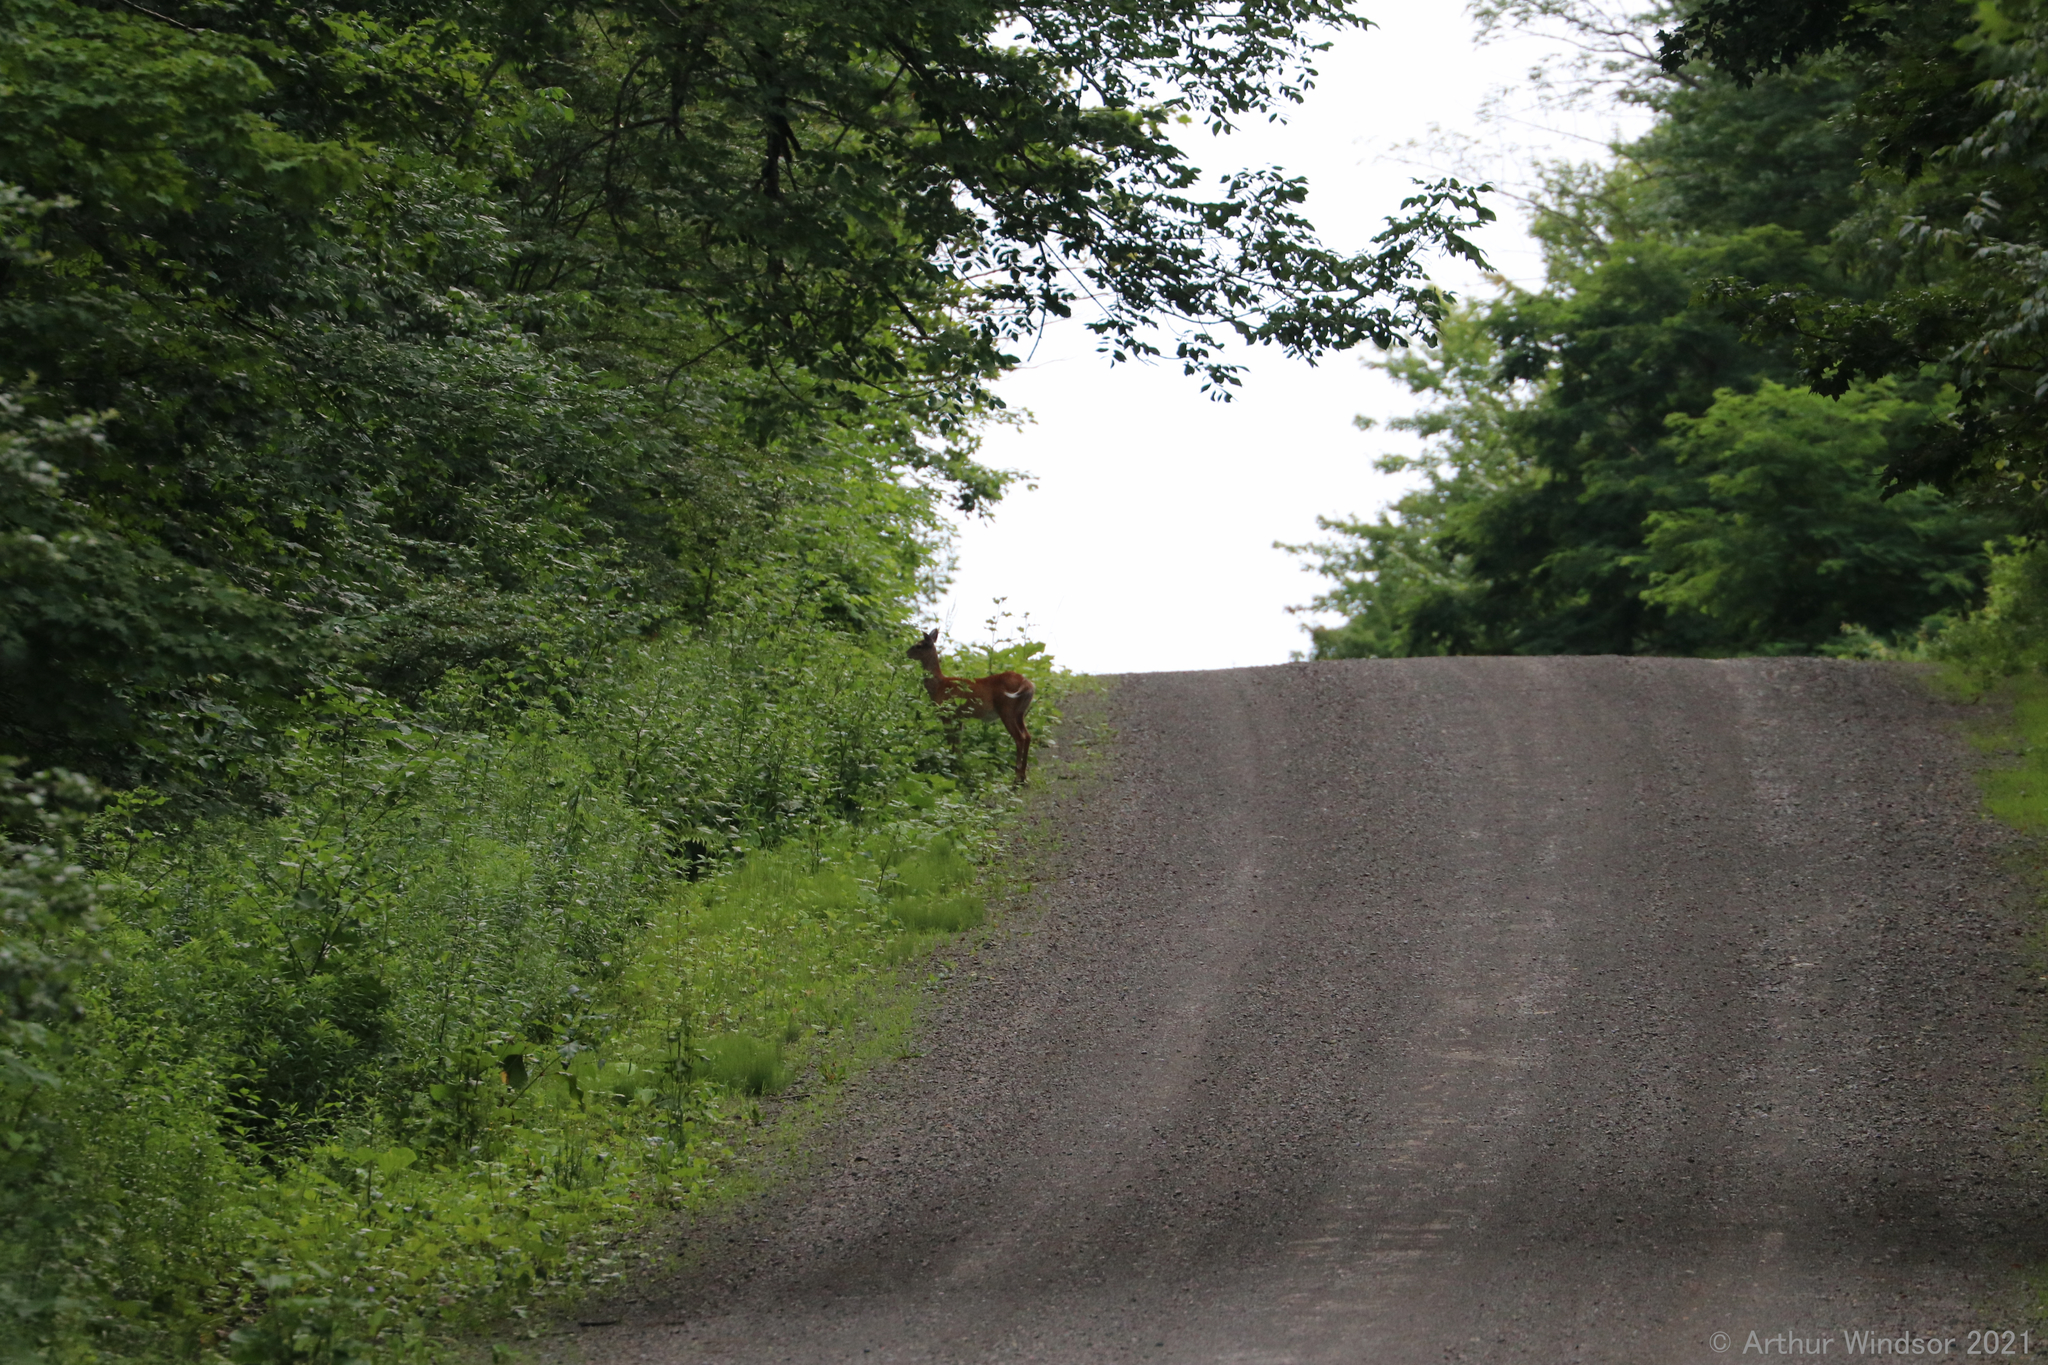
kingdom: Animalia
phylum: Chordata
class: Mammalia
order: Artiodactyla
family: Cervidae
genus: Odocoileus
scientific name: Odocoileus virginianus
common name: White-tailed deer
